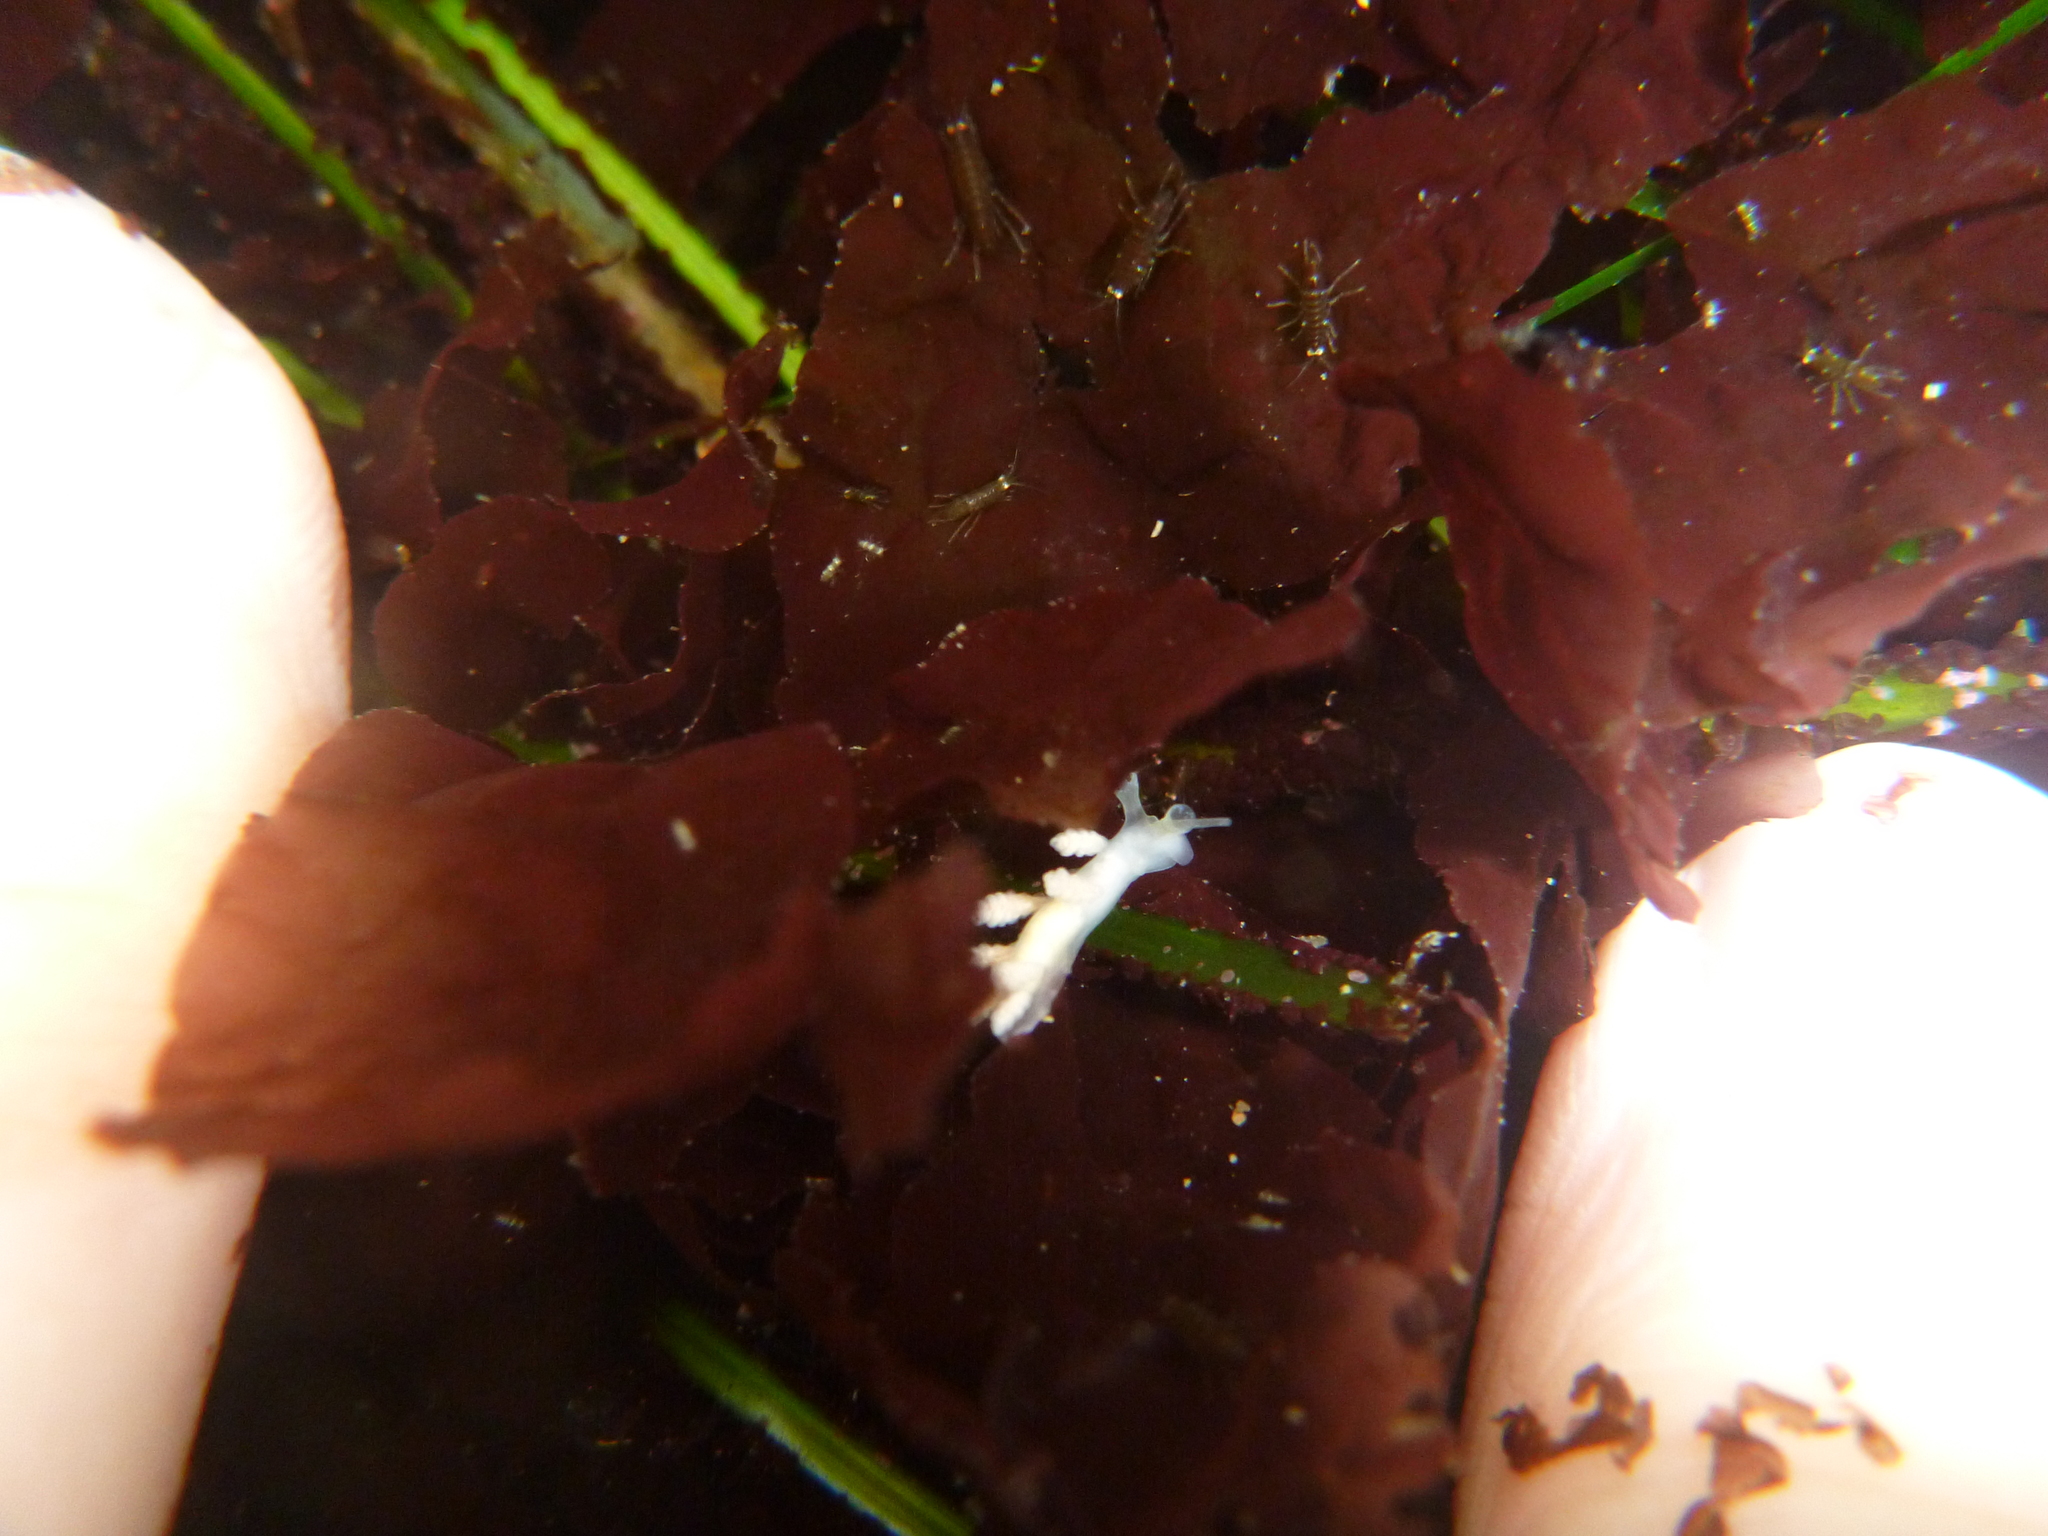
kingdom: Animalia
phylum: Mollusca
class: Gastropoda
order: Nudibranchia
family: Dotidae
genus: Doto
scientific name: Doto amyra
